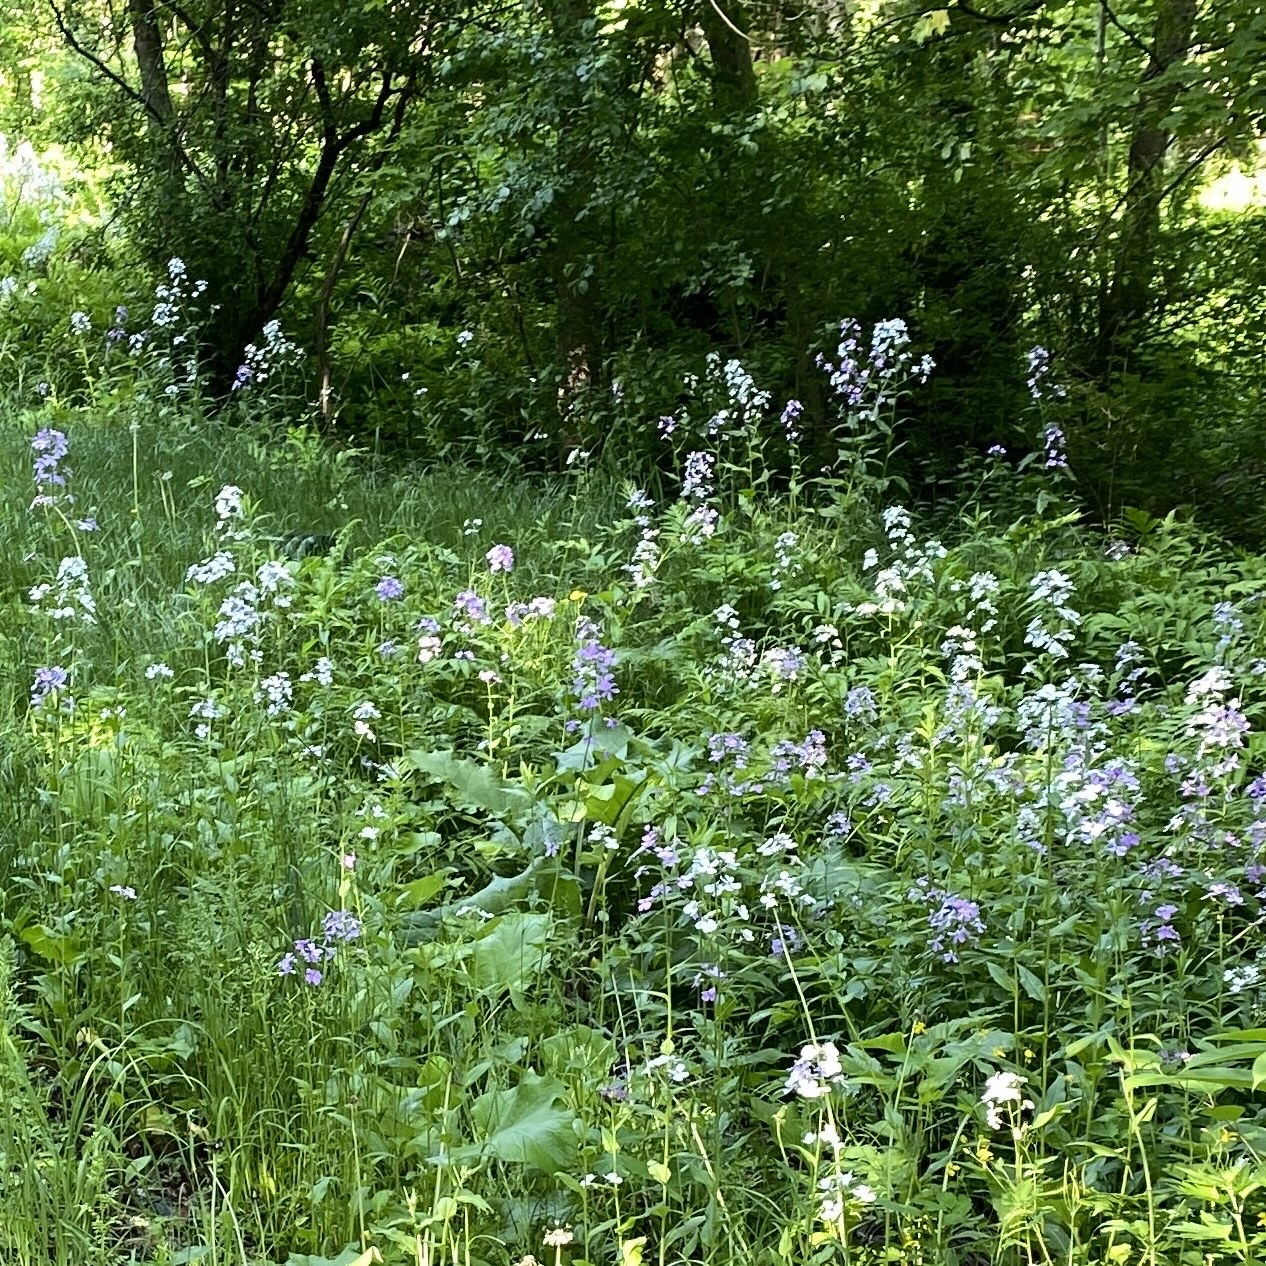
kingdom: Plantae
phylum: Tracheophyta
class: Magnoliopsida
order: Brassicales
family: Brassicaceae
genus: Hesperis
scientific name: Hesperis matronalis
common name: Dame's-violet
